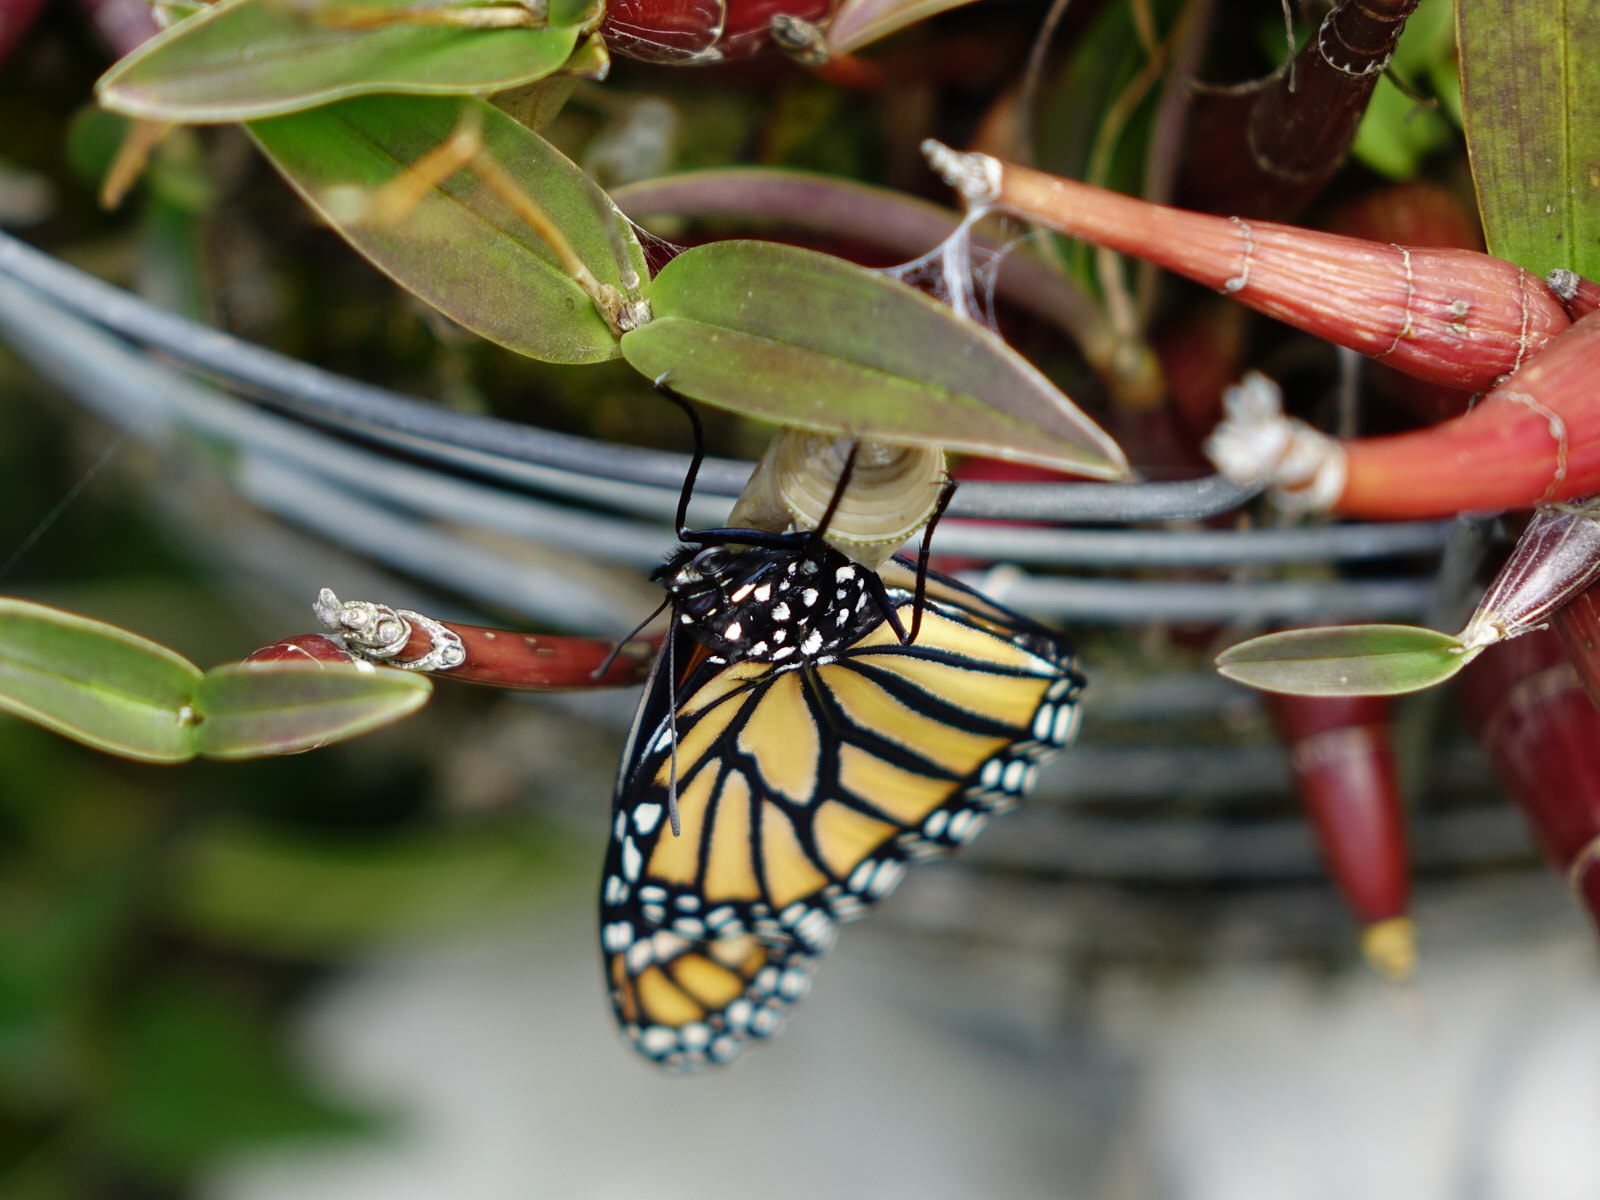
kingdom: Animalia
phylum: Arthropoda
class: Insecta
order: Lepidoptera
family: Nymphalidae
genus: Danaus
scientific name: Danaus plexippus
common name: Monarch
